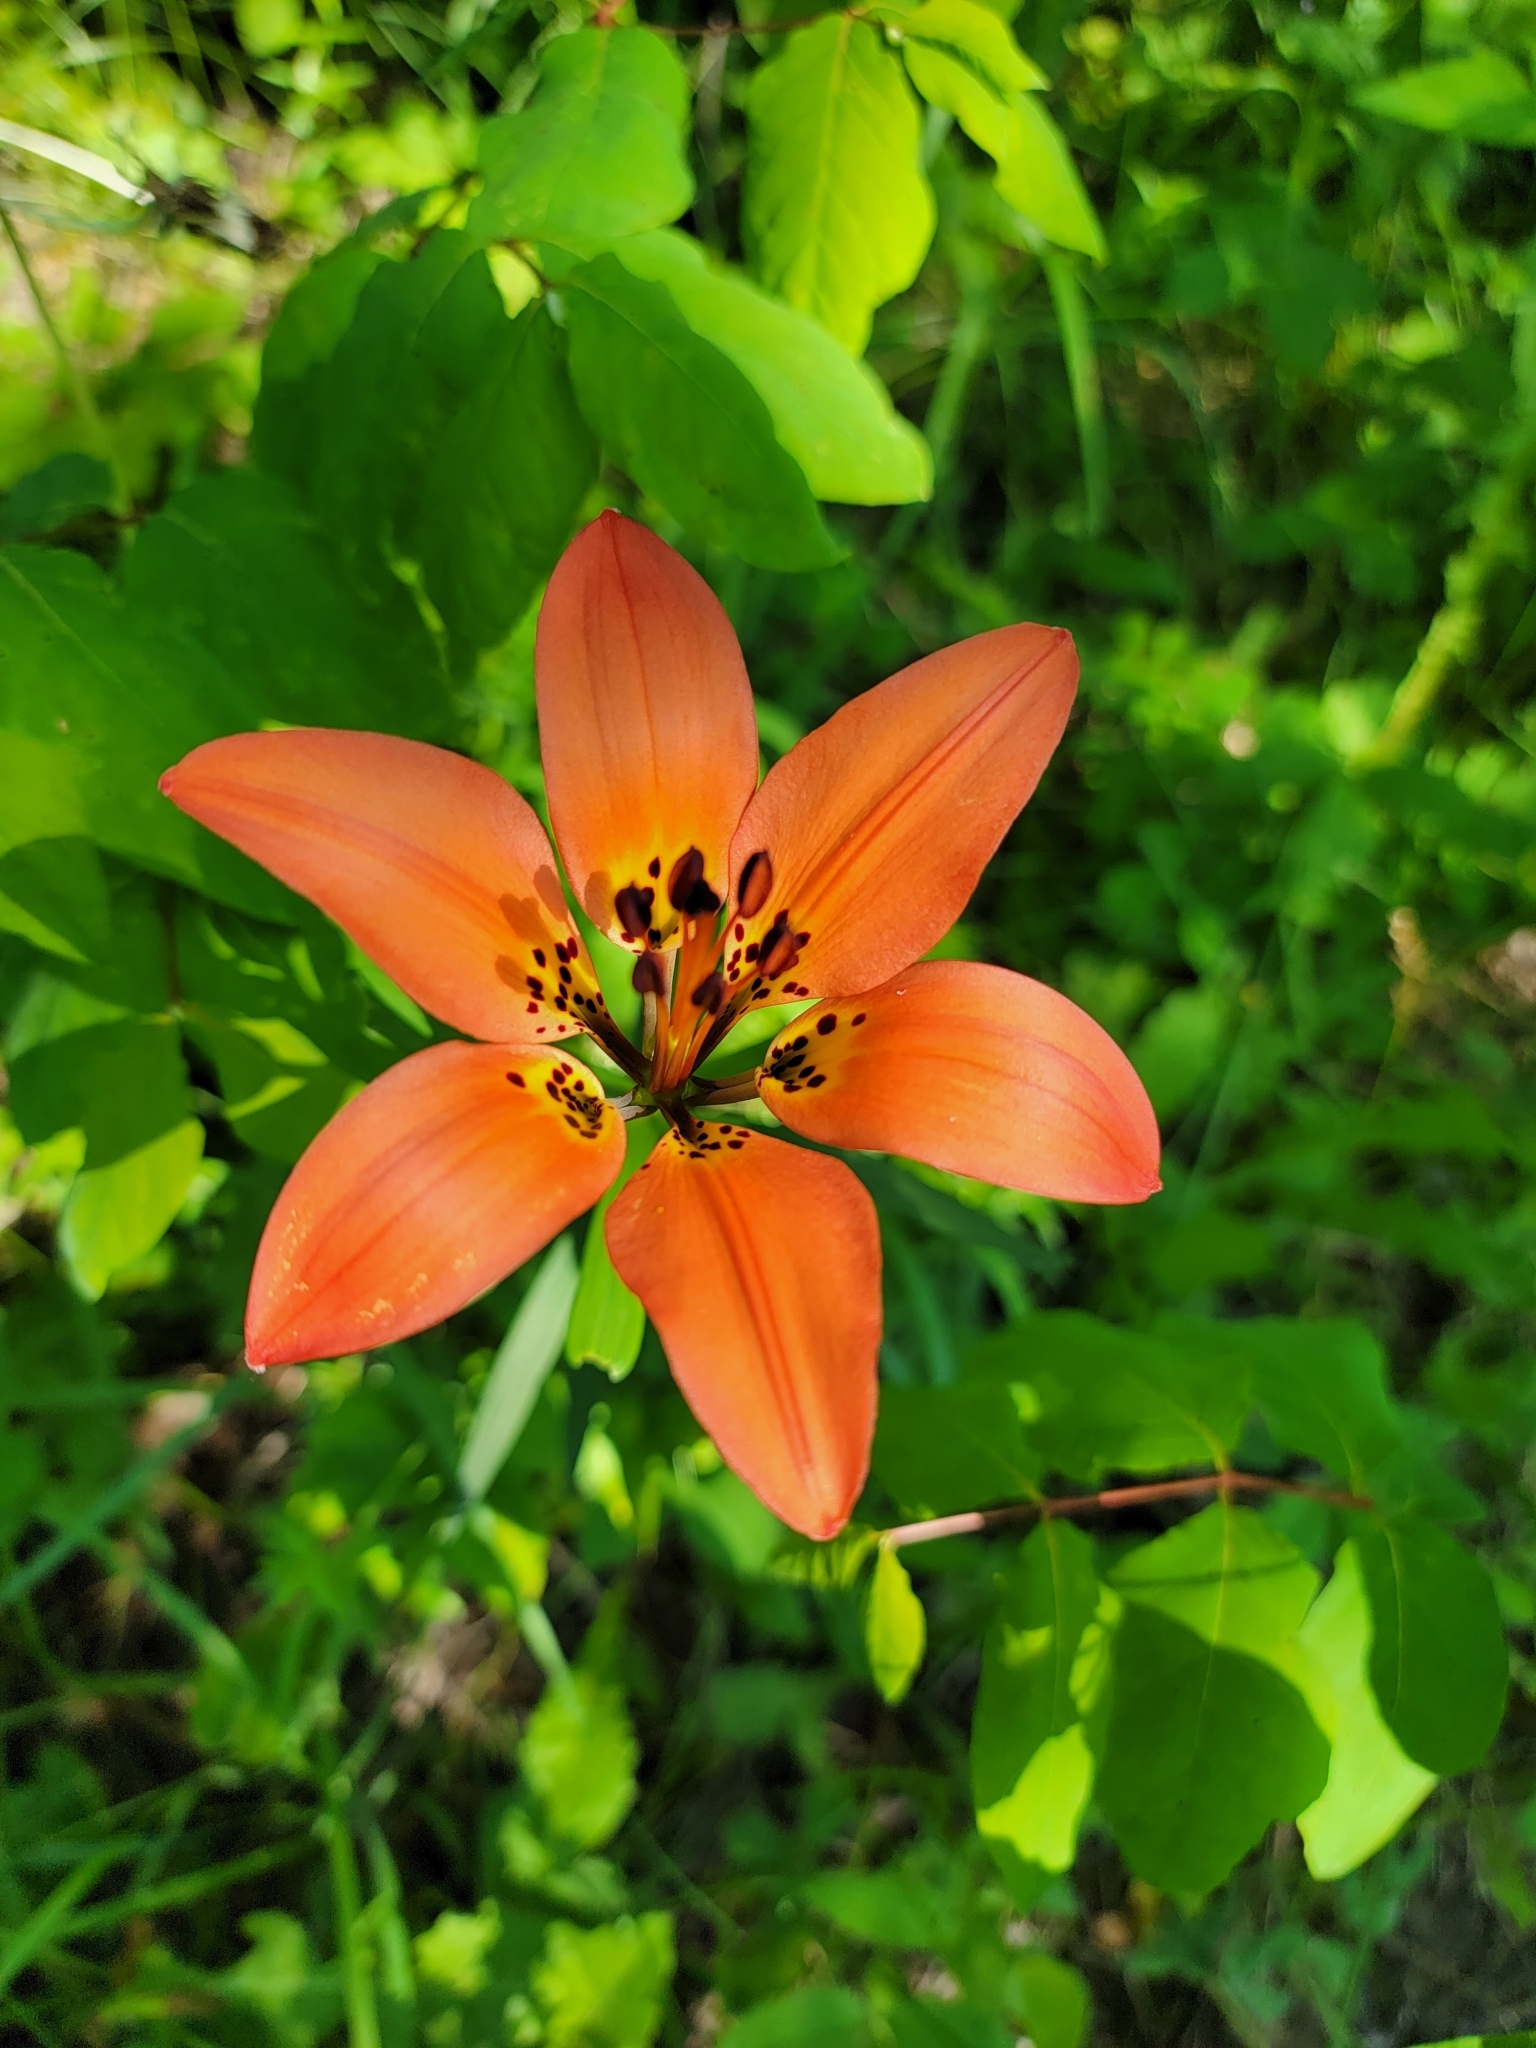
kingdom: Plantae
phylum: Tracheophyta
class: Liliopsida
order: Liliales
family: Liliaceae
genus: Lilium
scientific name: Lilium philadelphicum
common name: Red lily
